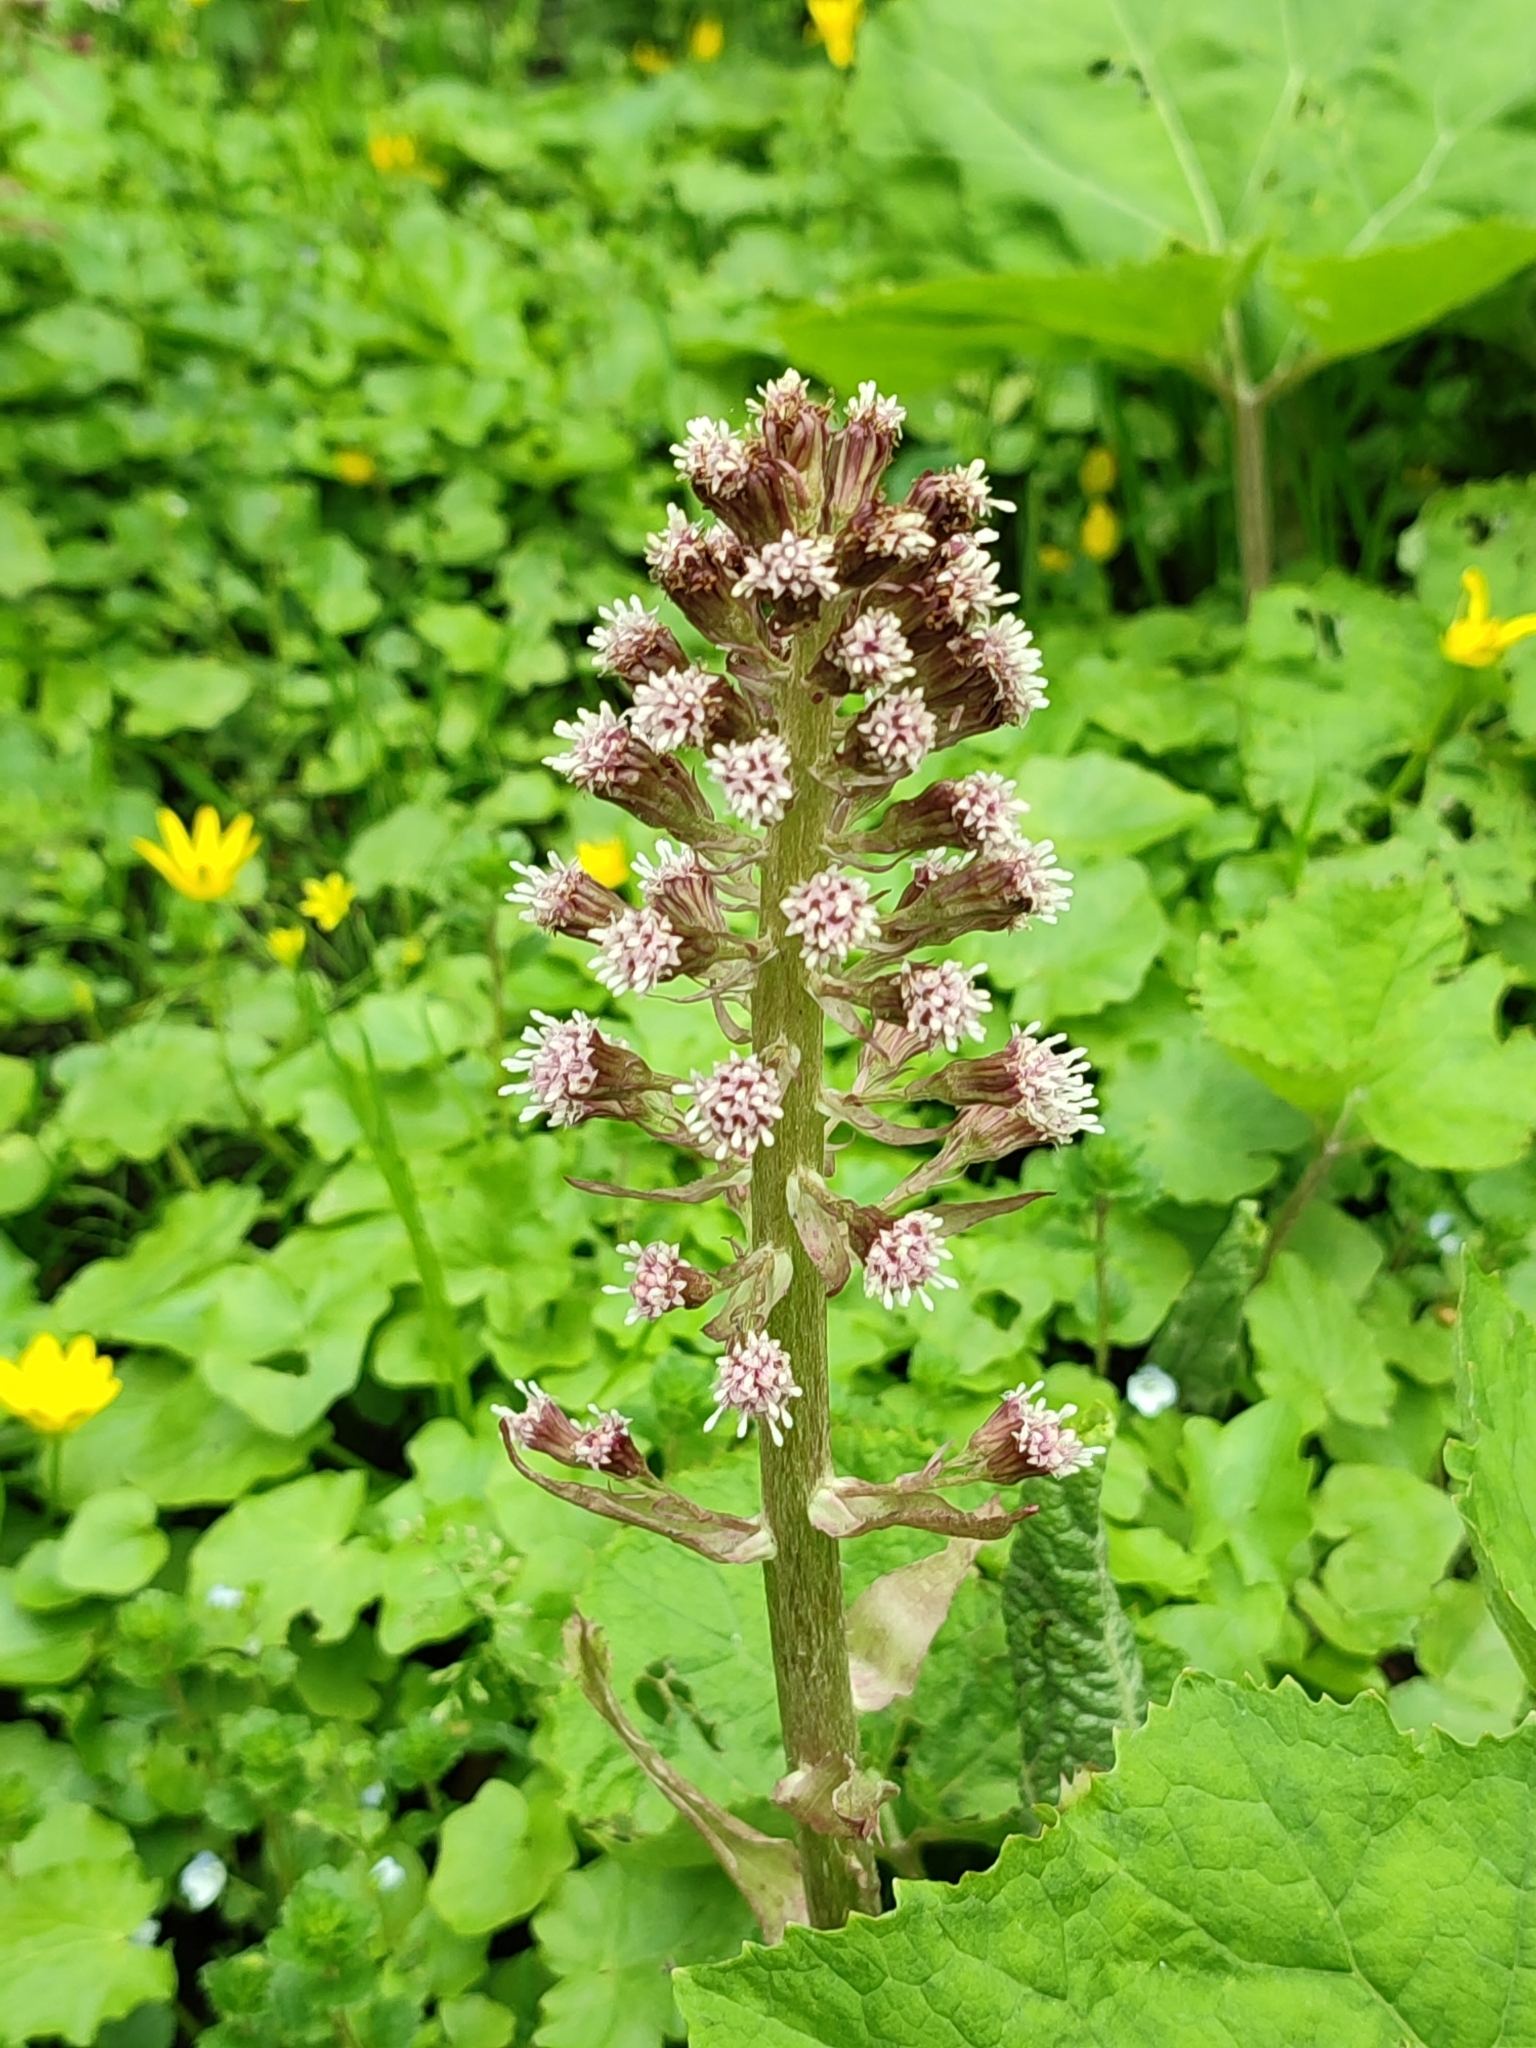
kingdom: Plantae
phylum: Tracheophyta
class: Magnoliopsida
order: Asterales
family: Asteraceae
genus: Petasites
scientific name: Petasites hybridus
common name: Butterbur
